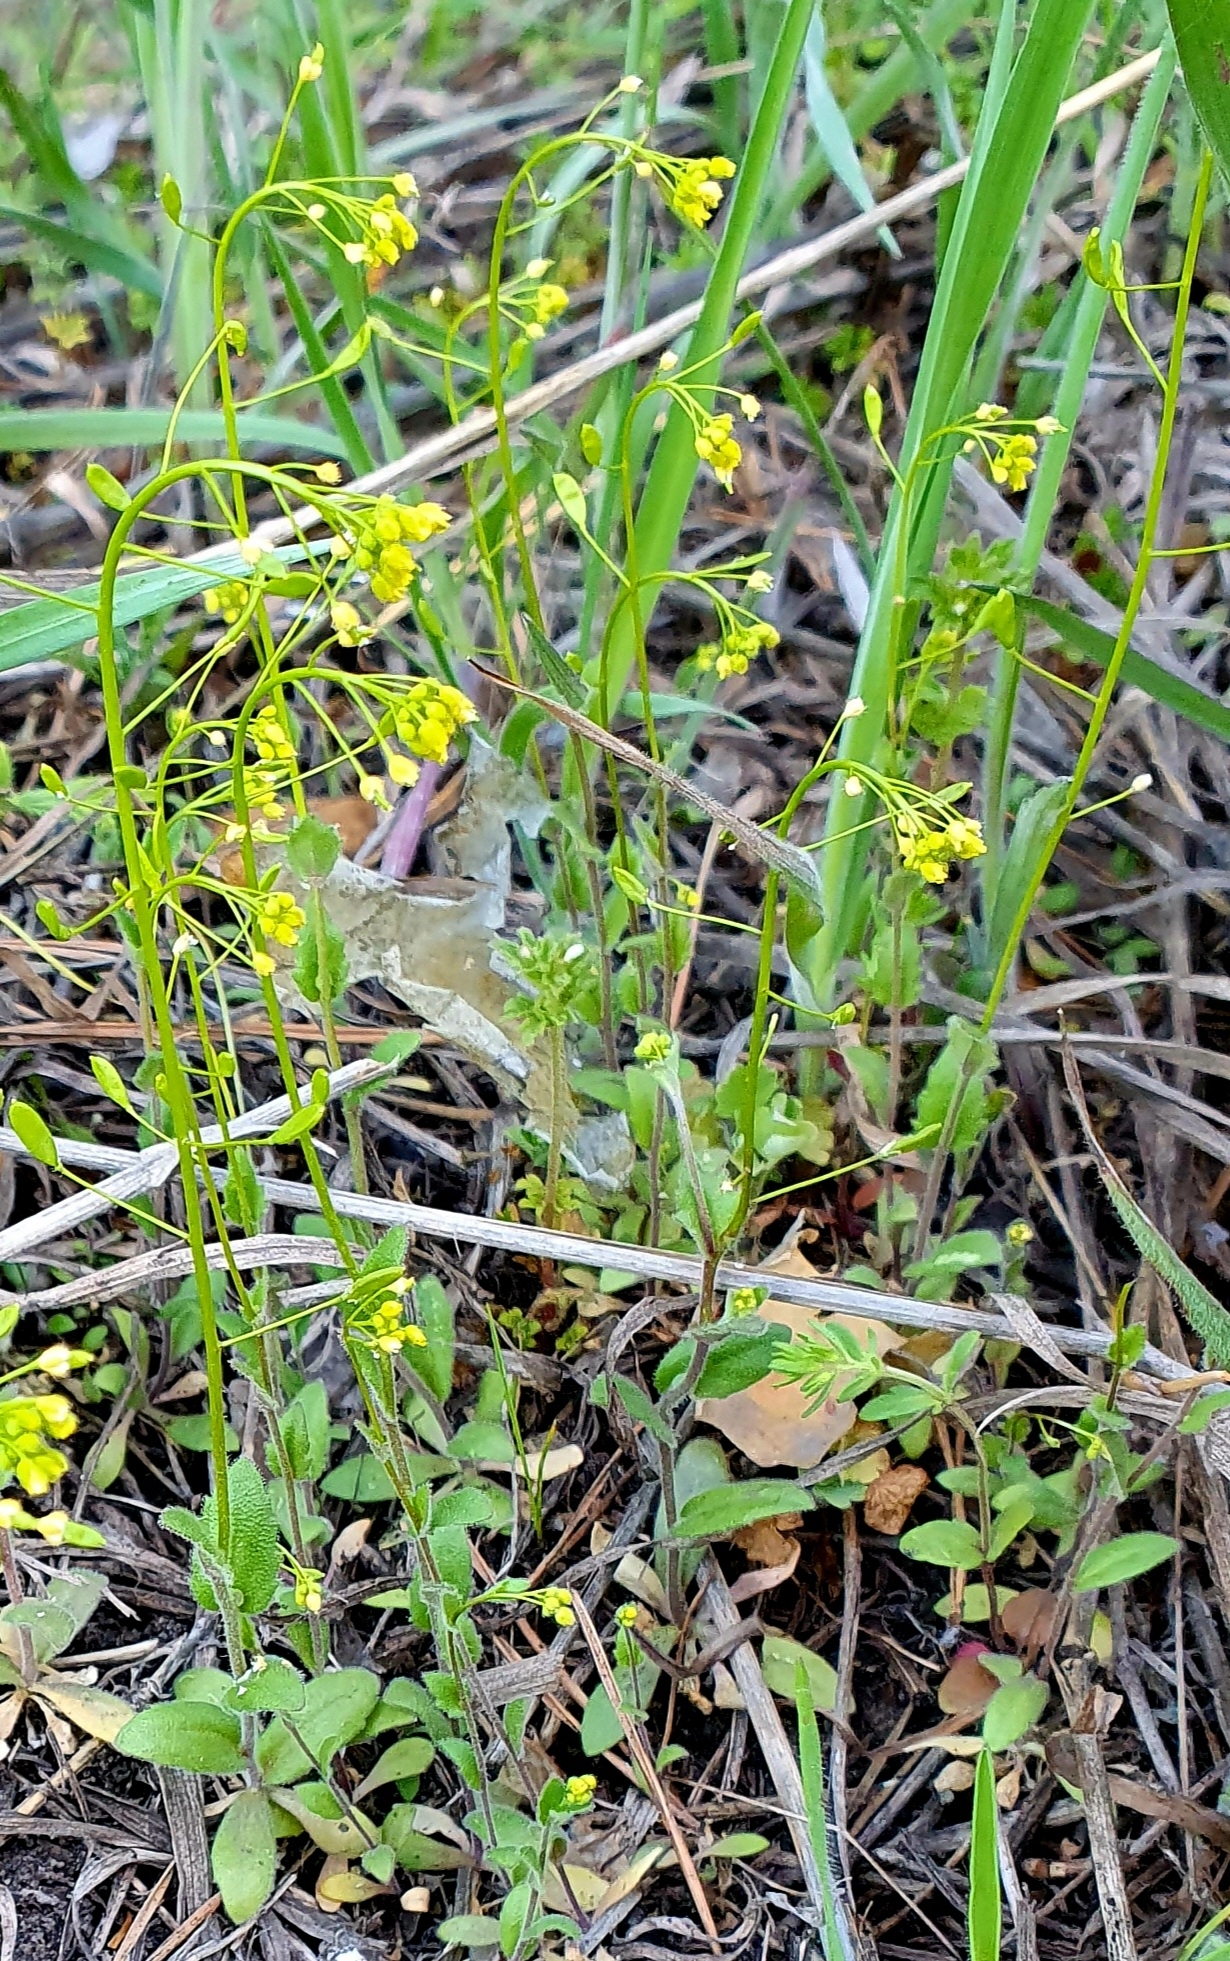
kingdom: Plantae
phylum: Tracheophyta
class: Magnoliopsida
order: Brassicales
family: Brassicaceae
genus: Draba
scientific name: Draba nemorosa
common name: Wood whitlow-grass
